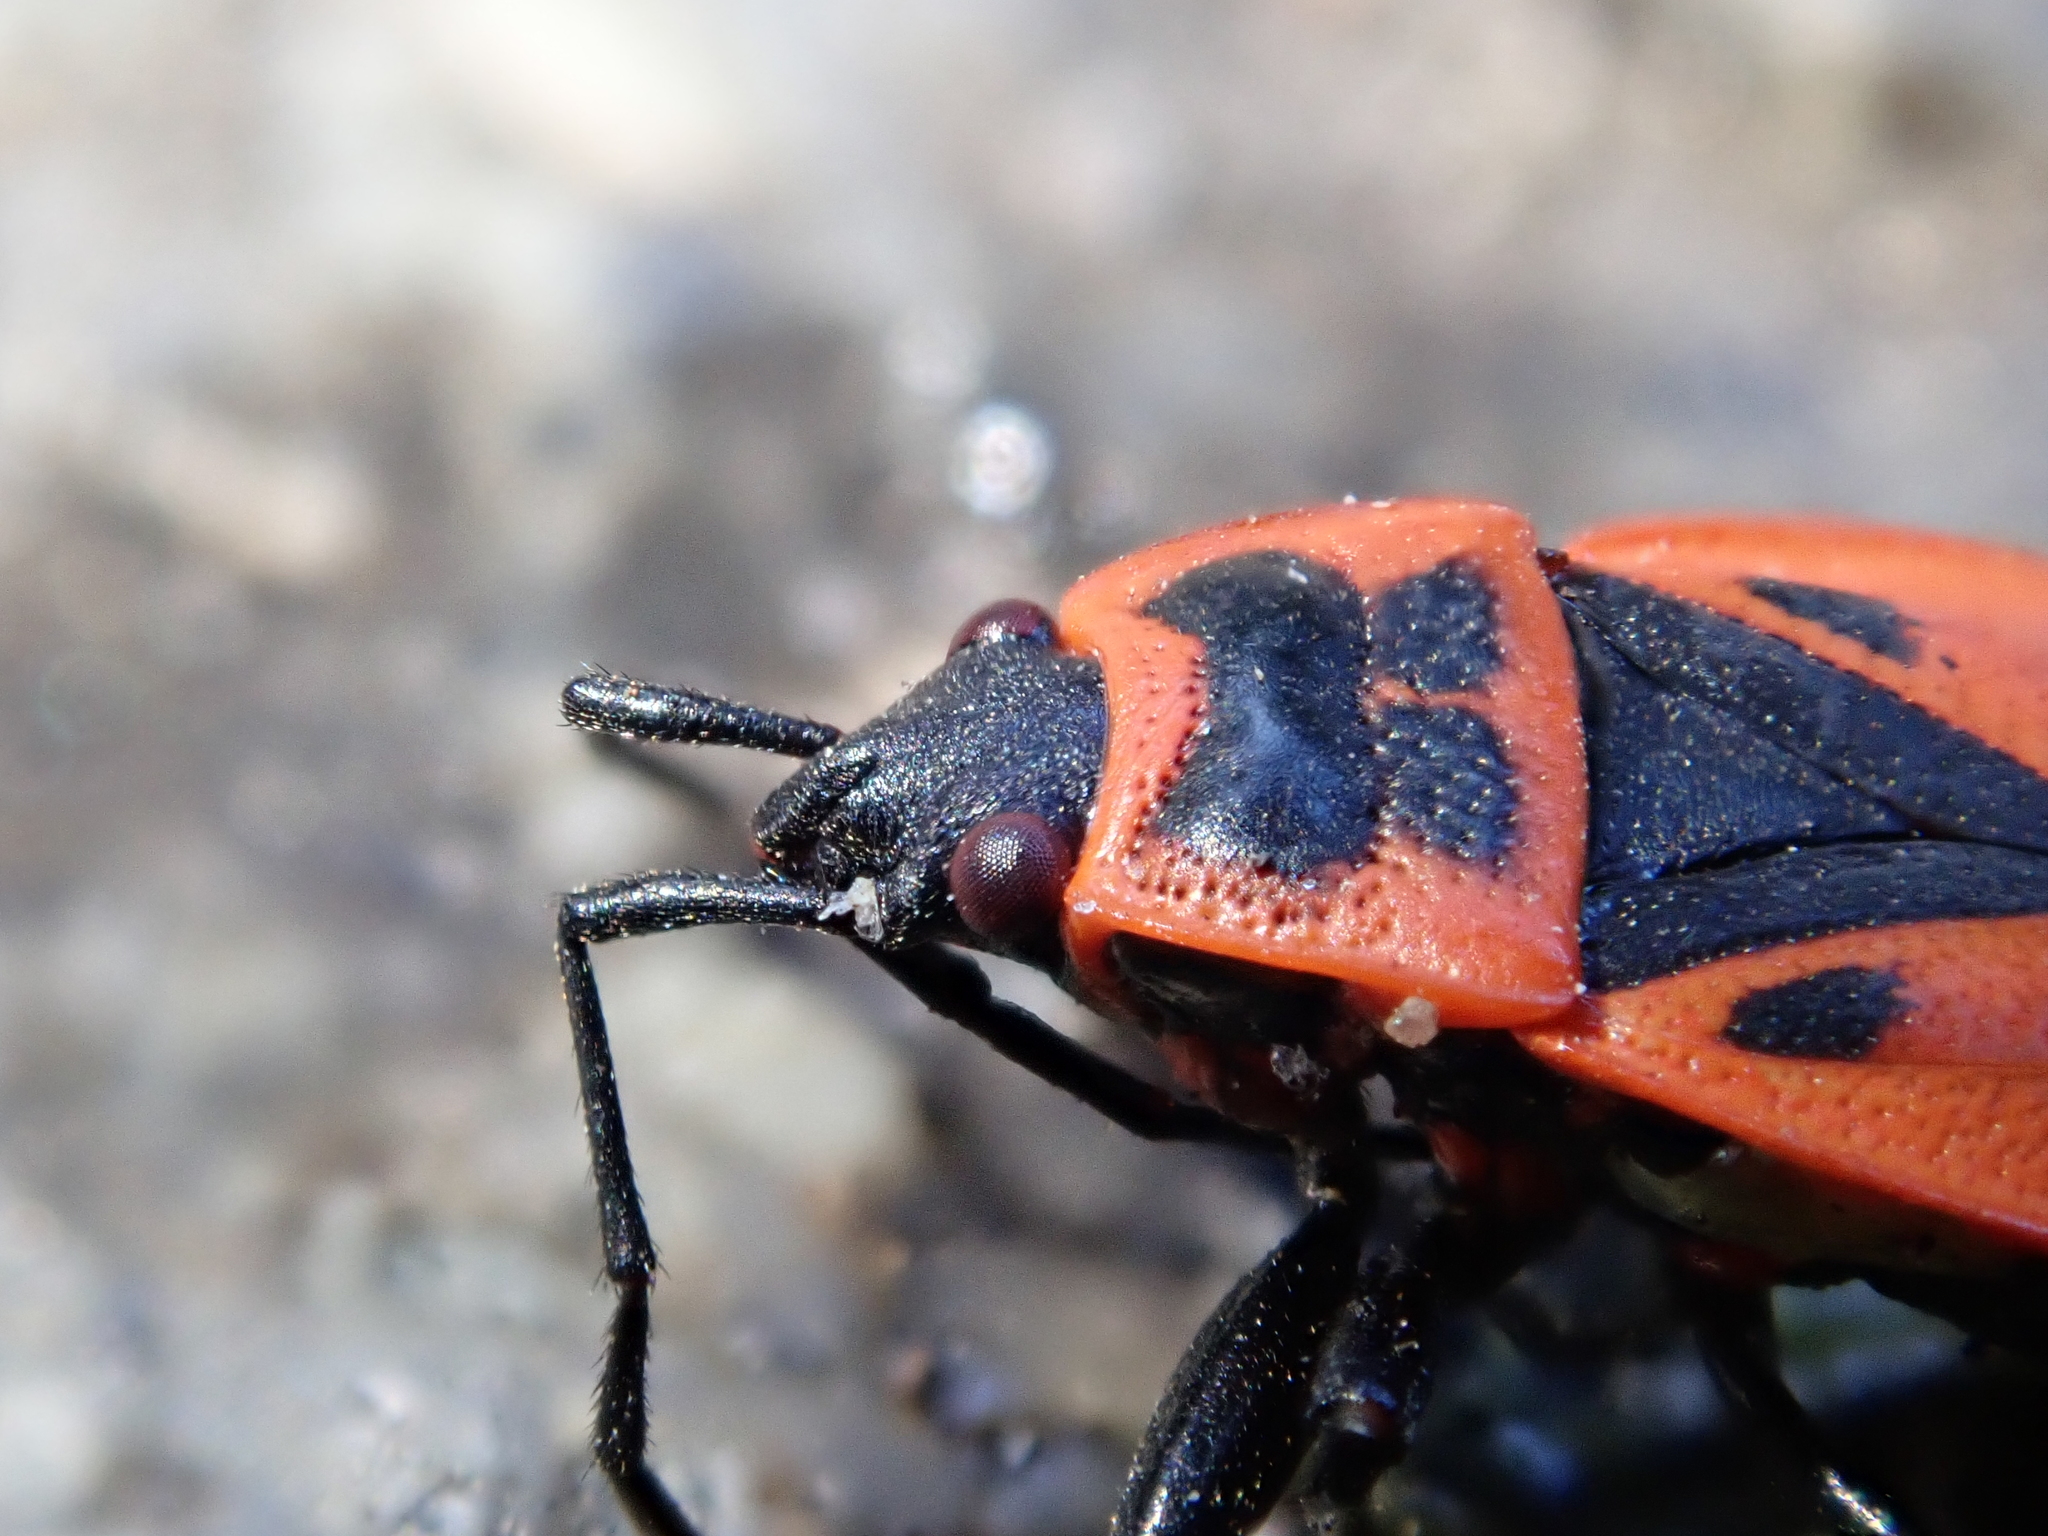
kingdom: Animalia
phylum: Arthropoda
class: Insecta
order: Hemiptera
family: Pyrrhocoridae
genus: Pyrrhocoris
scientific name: Pyrrhocoris apterus
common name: Firebug
